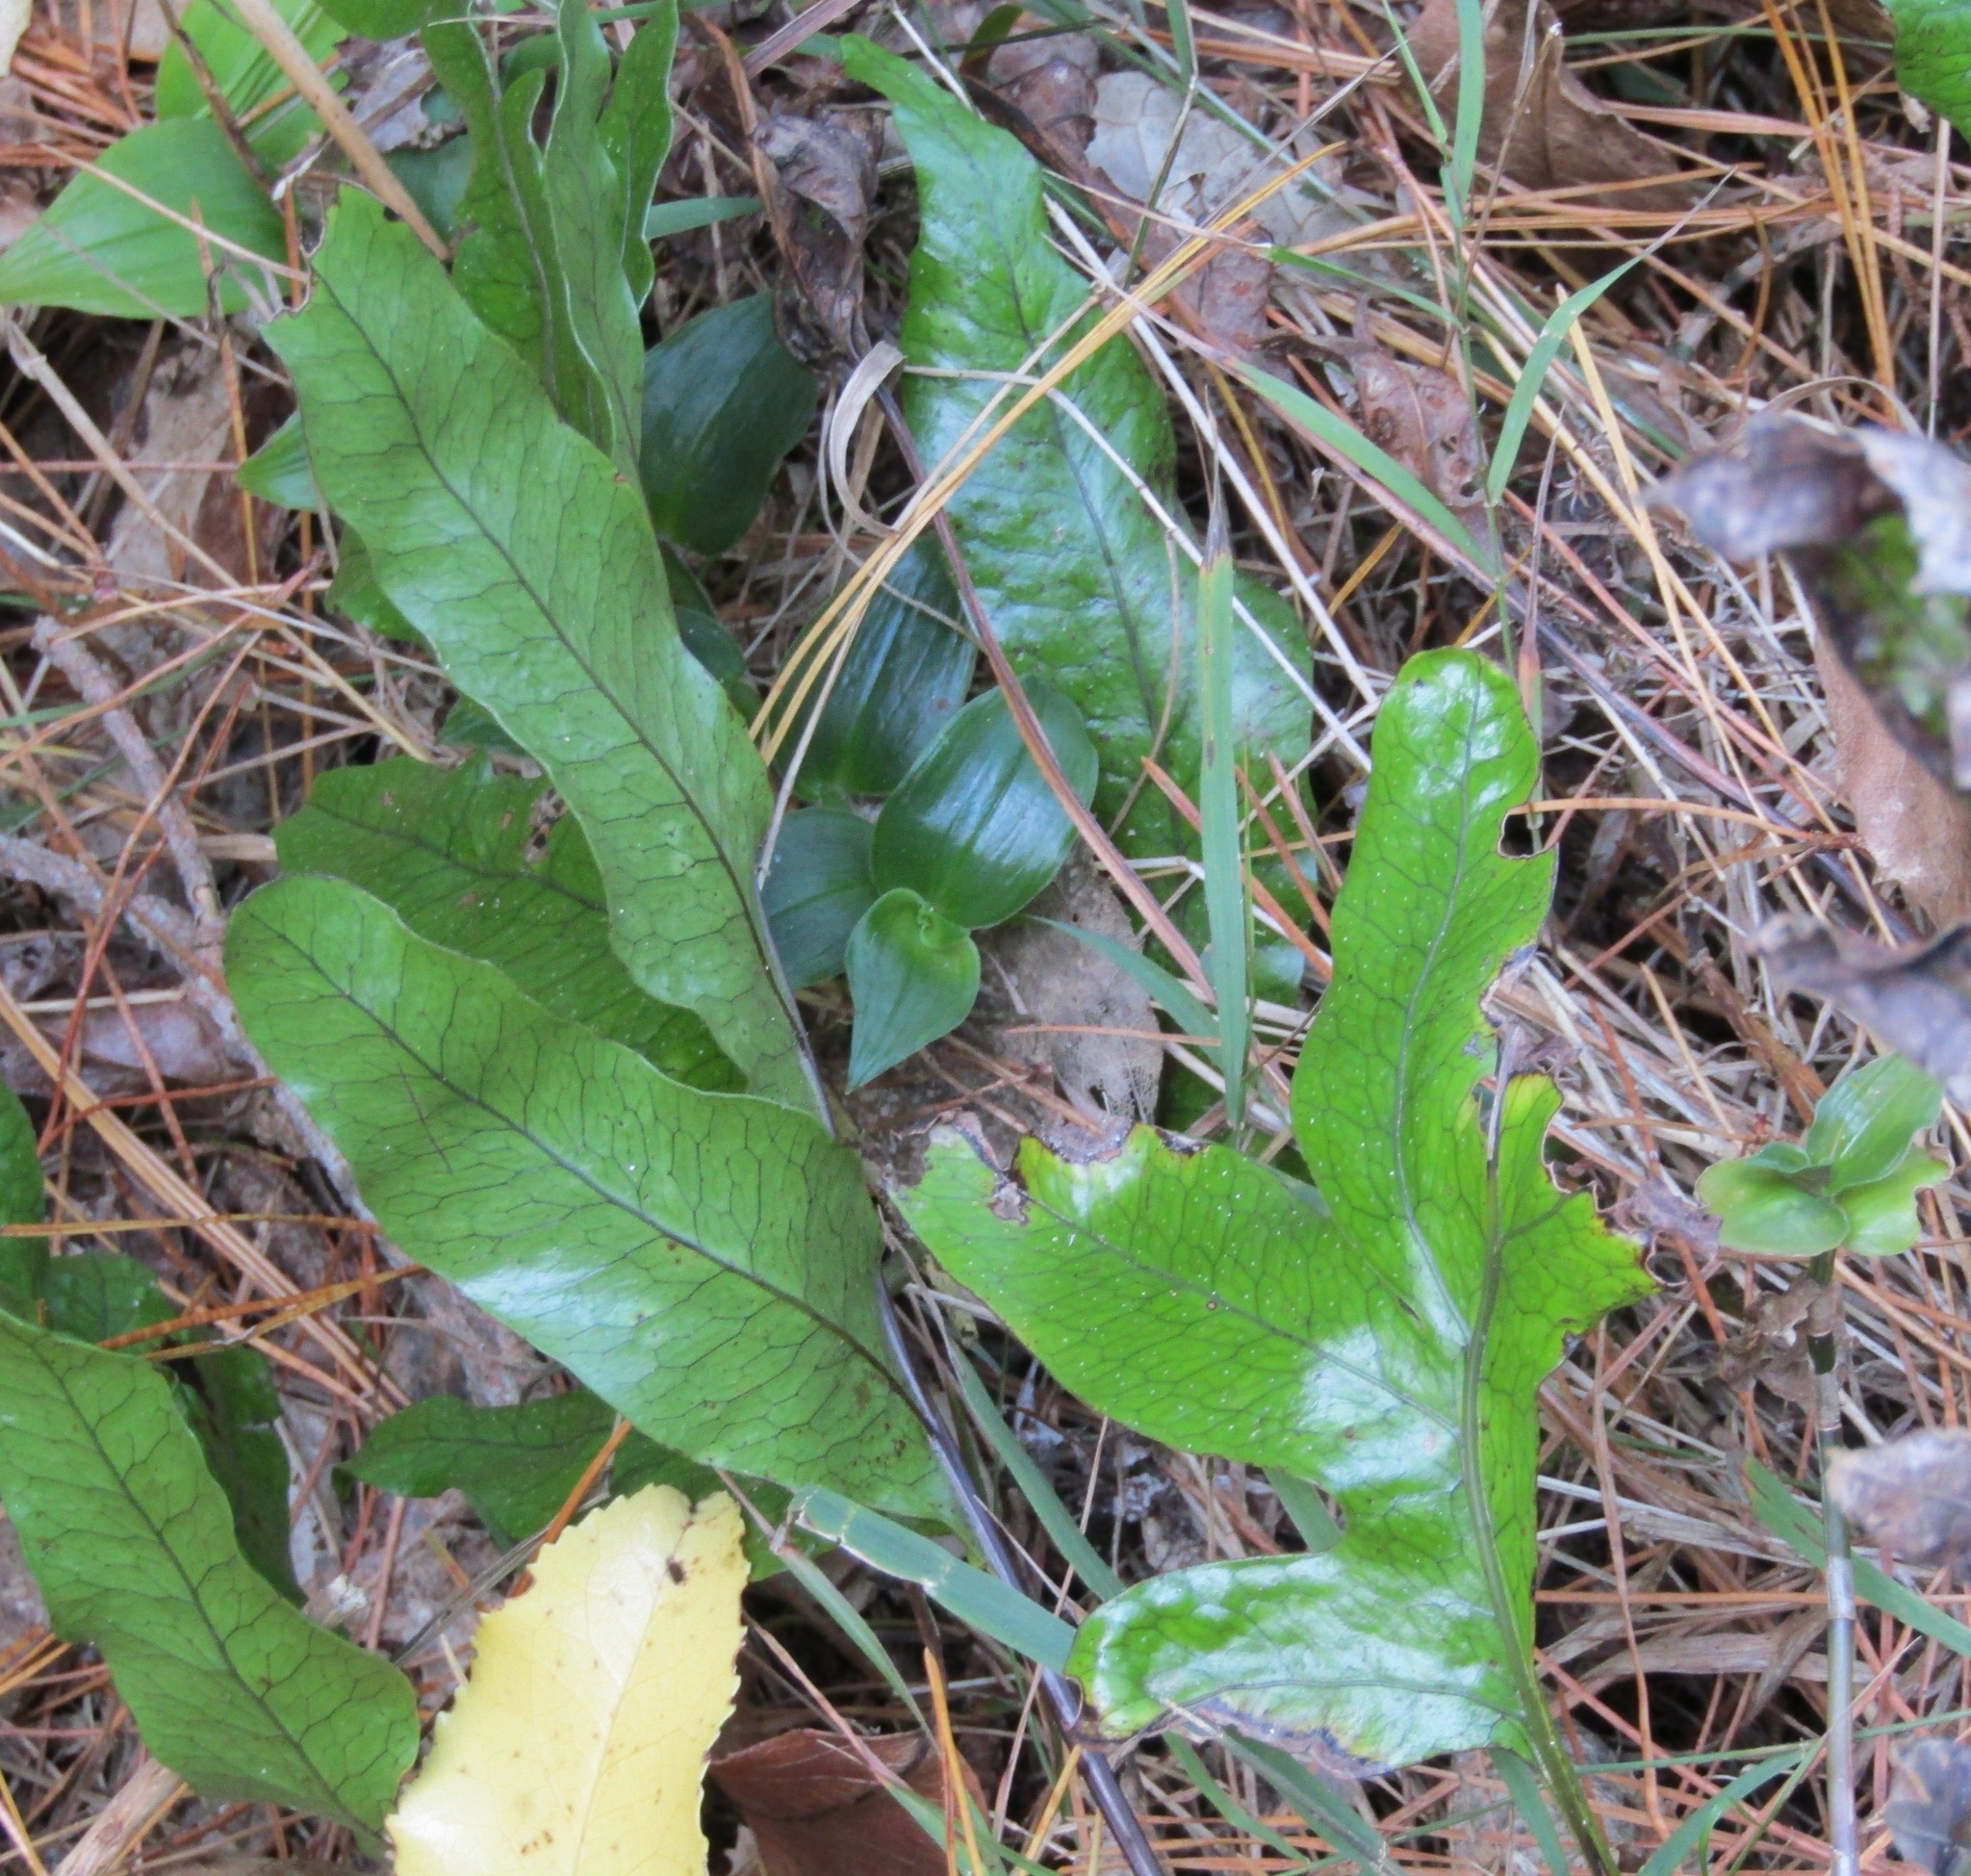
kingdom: Plantae
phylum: Tracheophyta
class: Polypodiopsida
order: Polypodiales
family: Polypodiaceae
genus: Lecanopteris
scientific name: Lecanopteris pustulata
